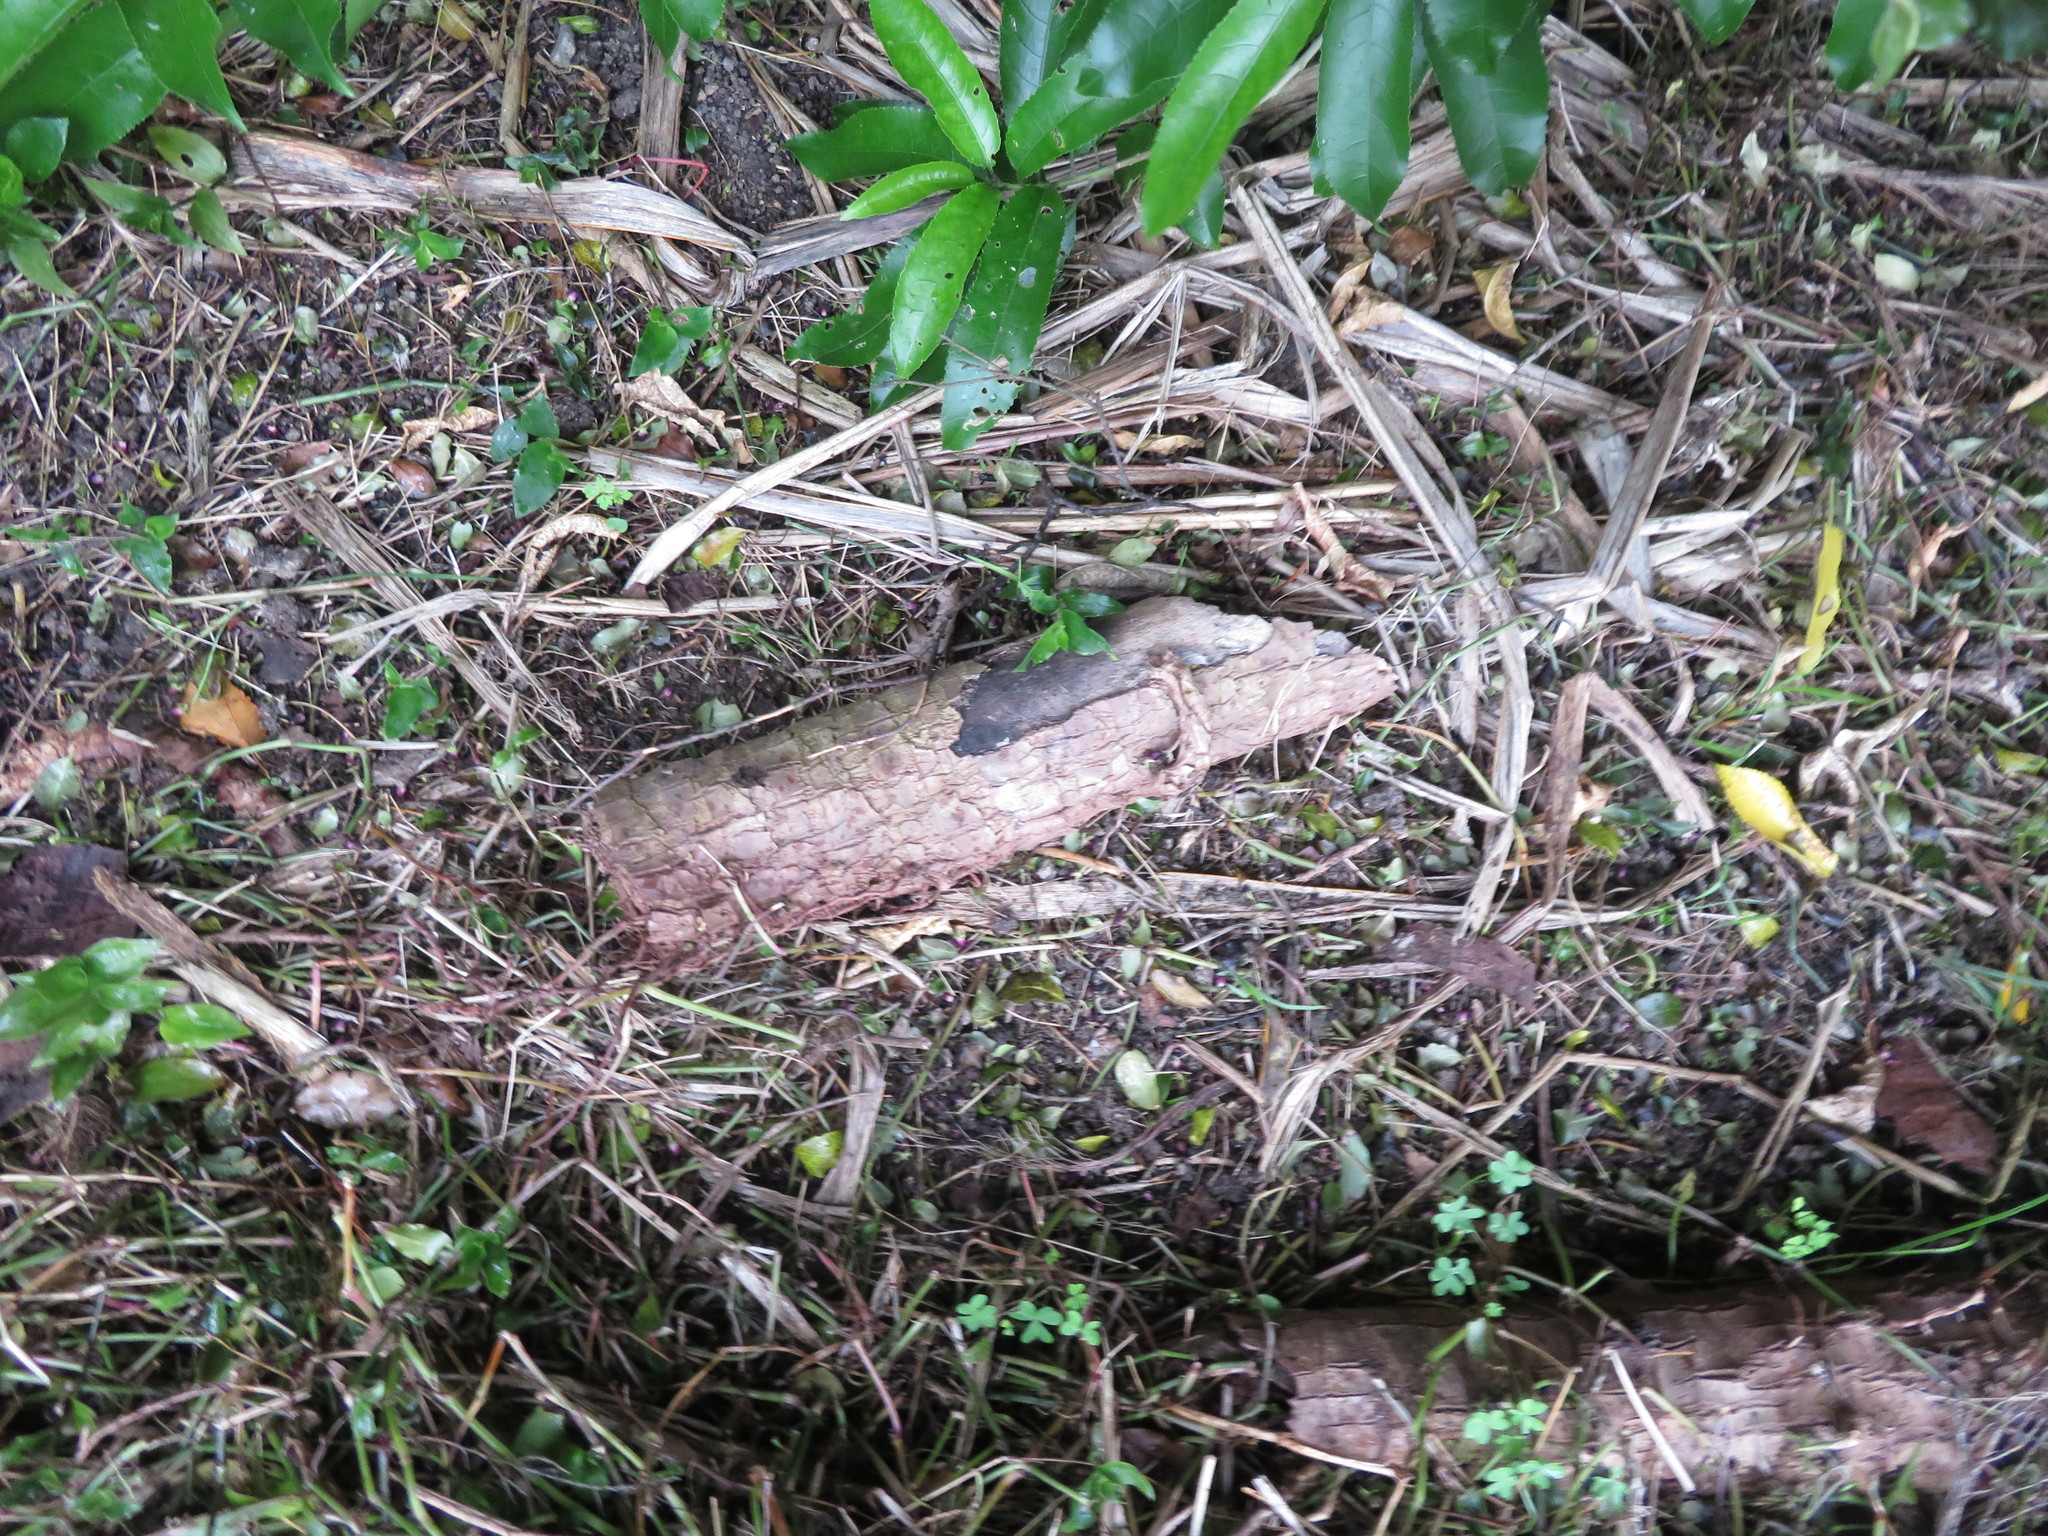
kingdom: Plantae
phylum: Tracheophyta
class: Liliopsida
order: Commelinales
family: Commelinaceae
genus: Tradescantia
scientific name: Tradescantia fluminensis
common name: Wandering-jew
